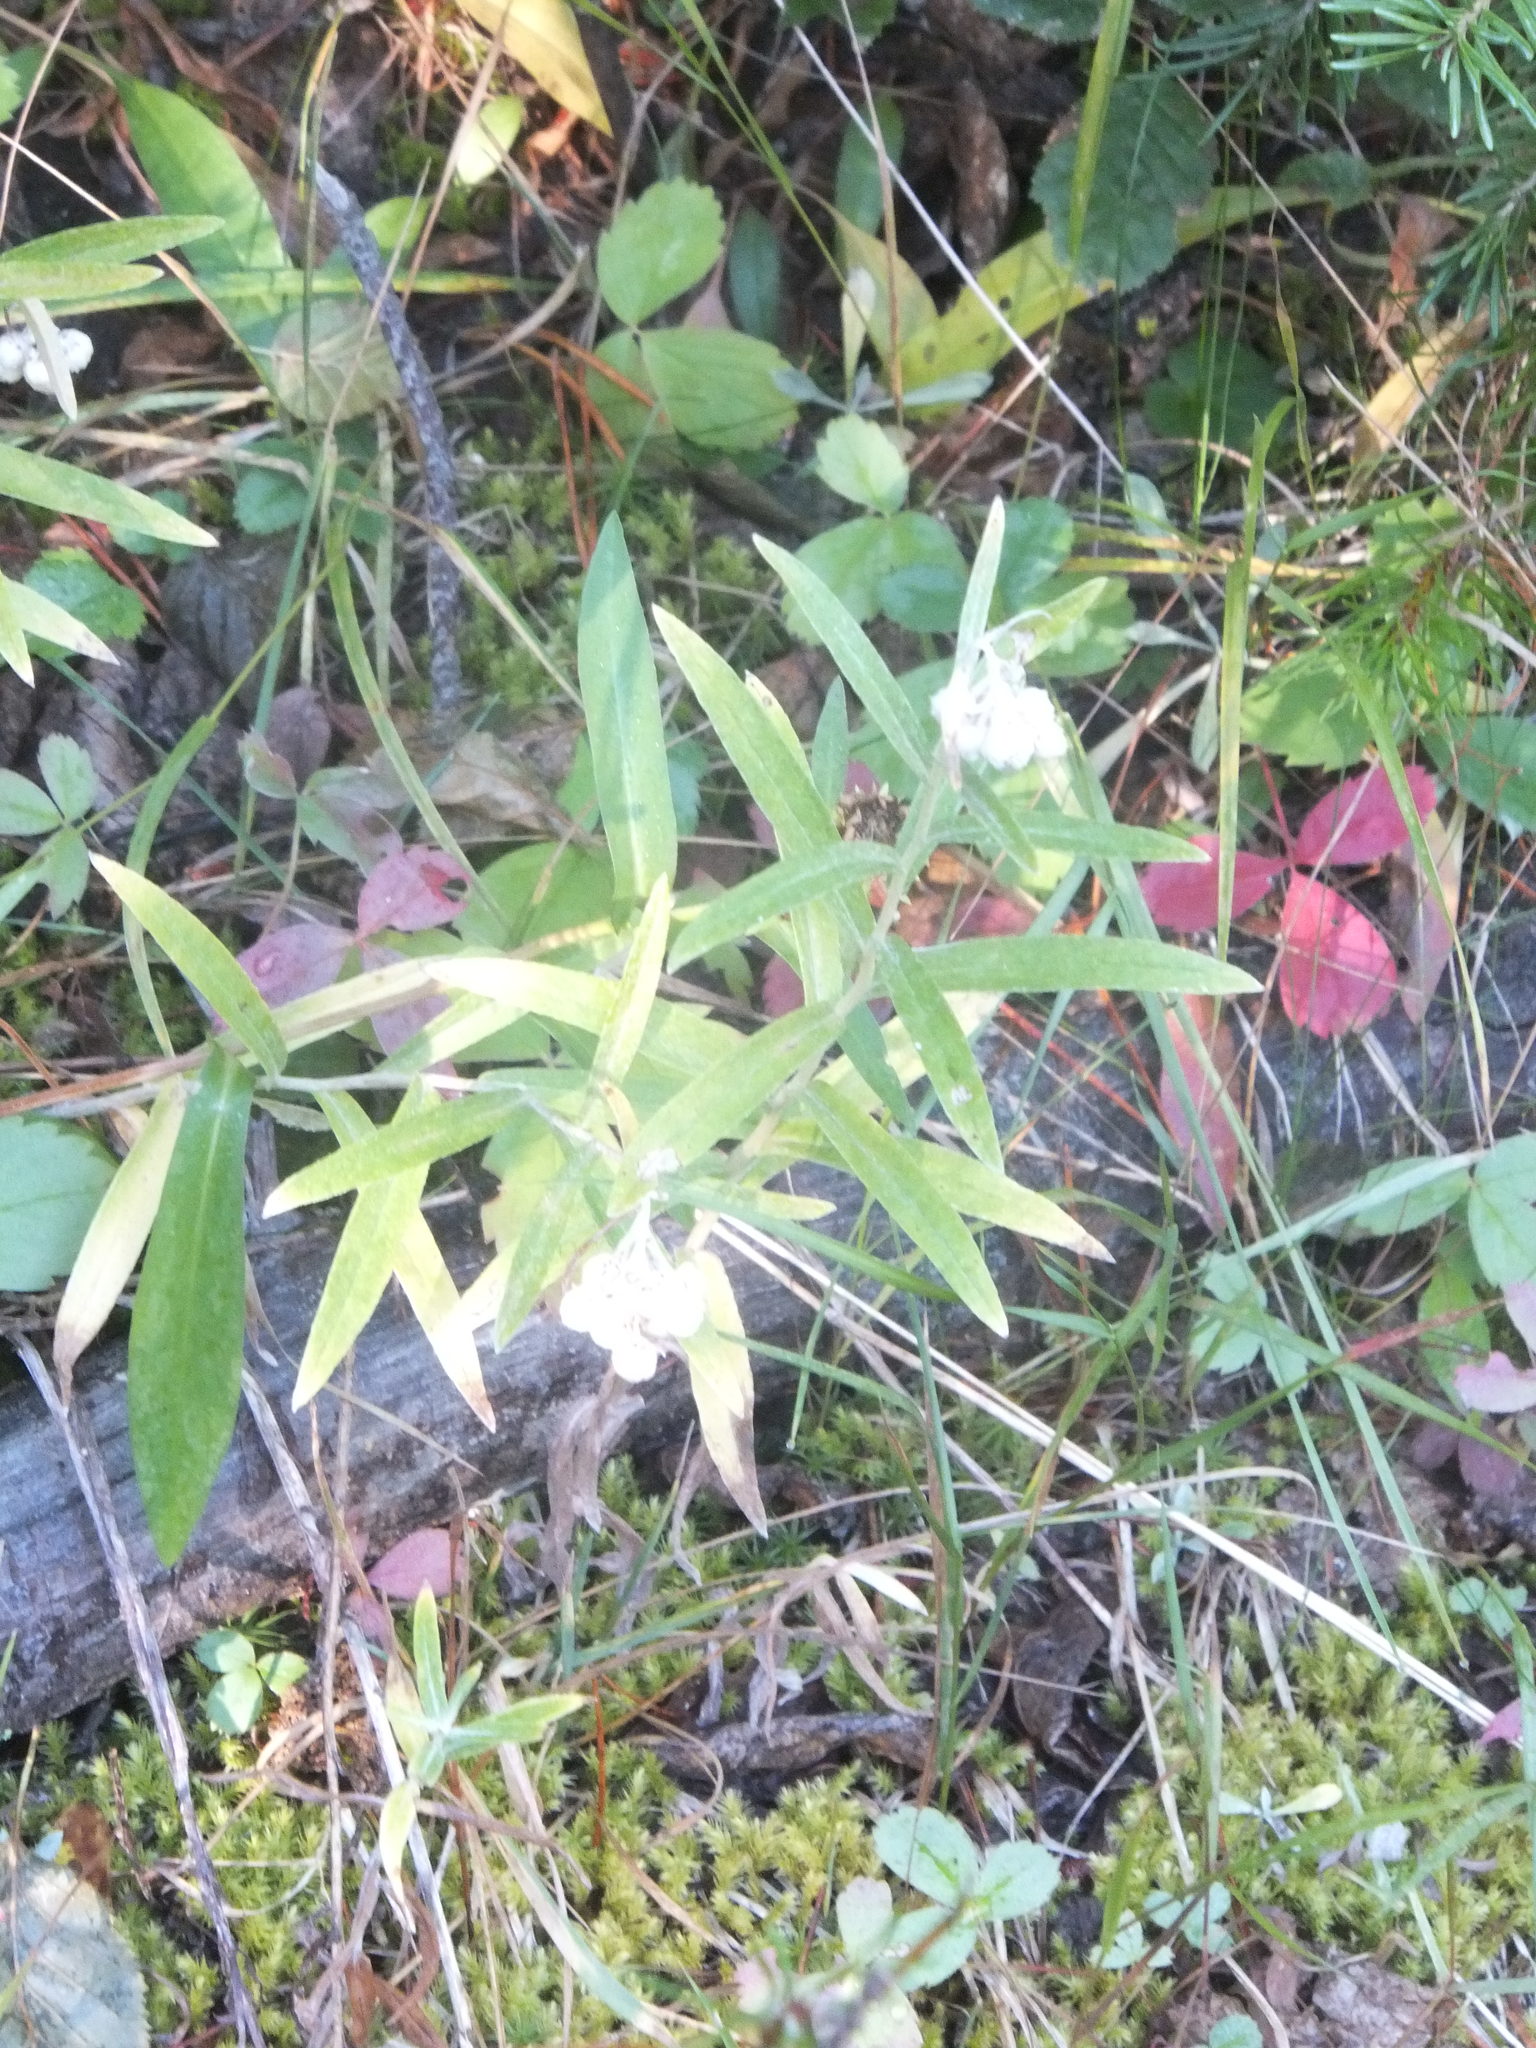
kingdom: Plantae
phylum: Tracheophyta
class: Magnoliopsida
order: Asterales
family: Asteraceae
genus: Anaphalis
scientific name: Anaphalis margaritacea
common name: Pearly everlasting
